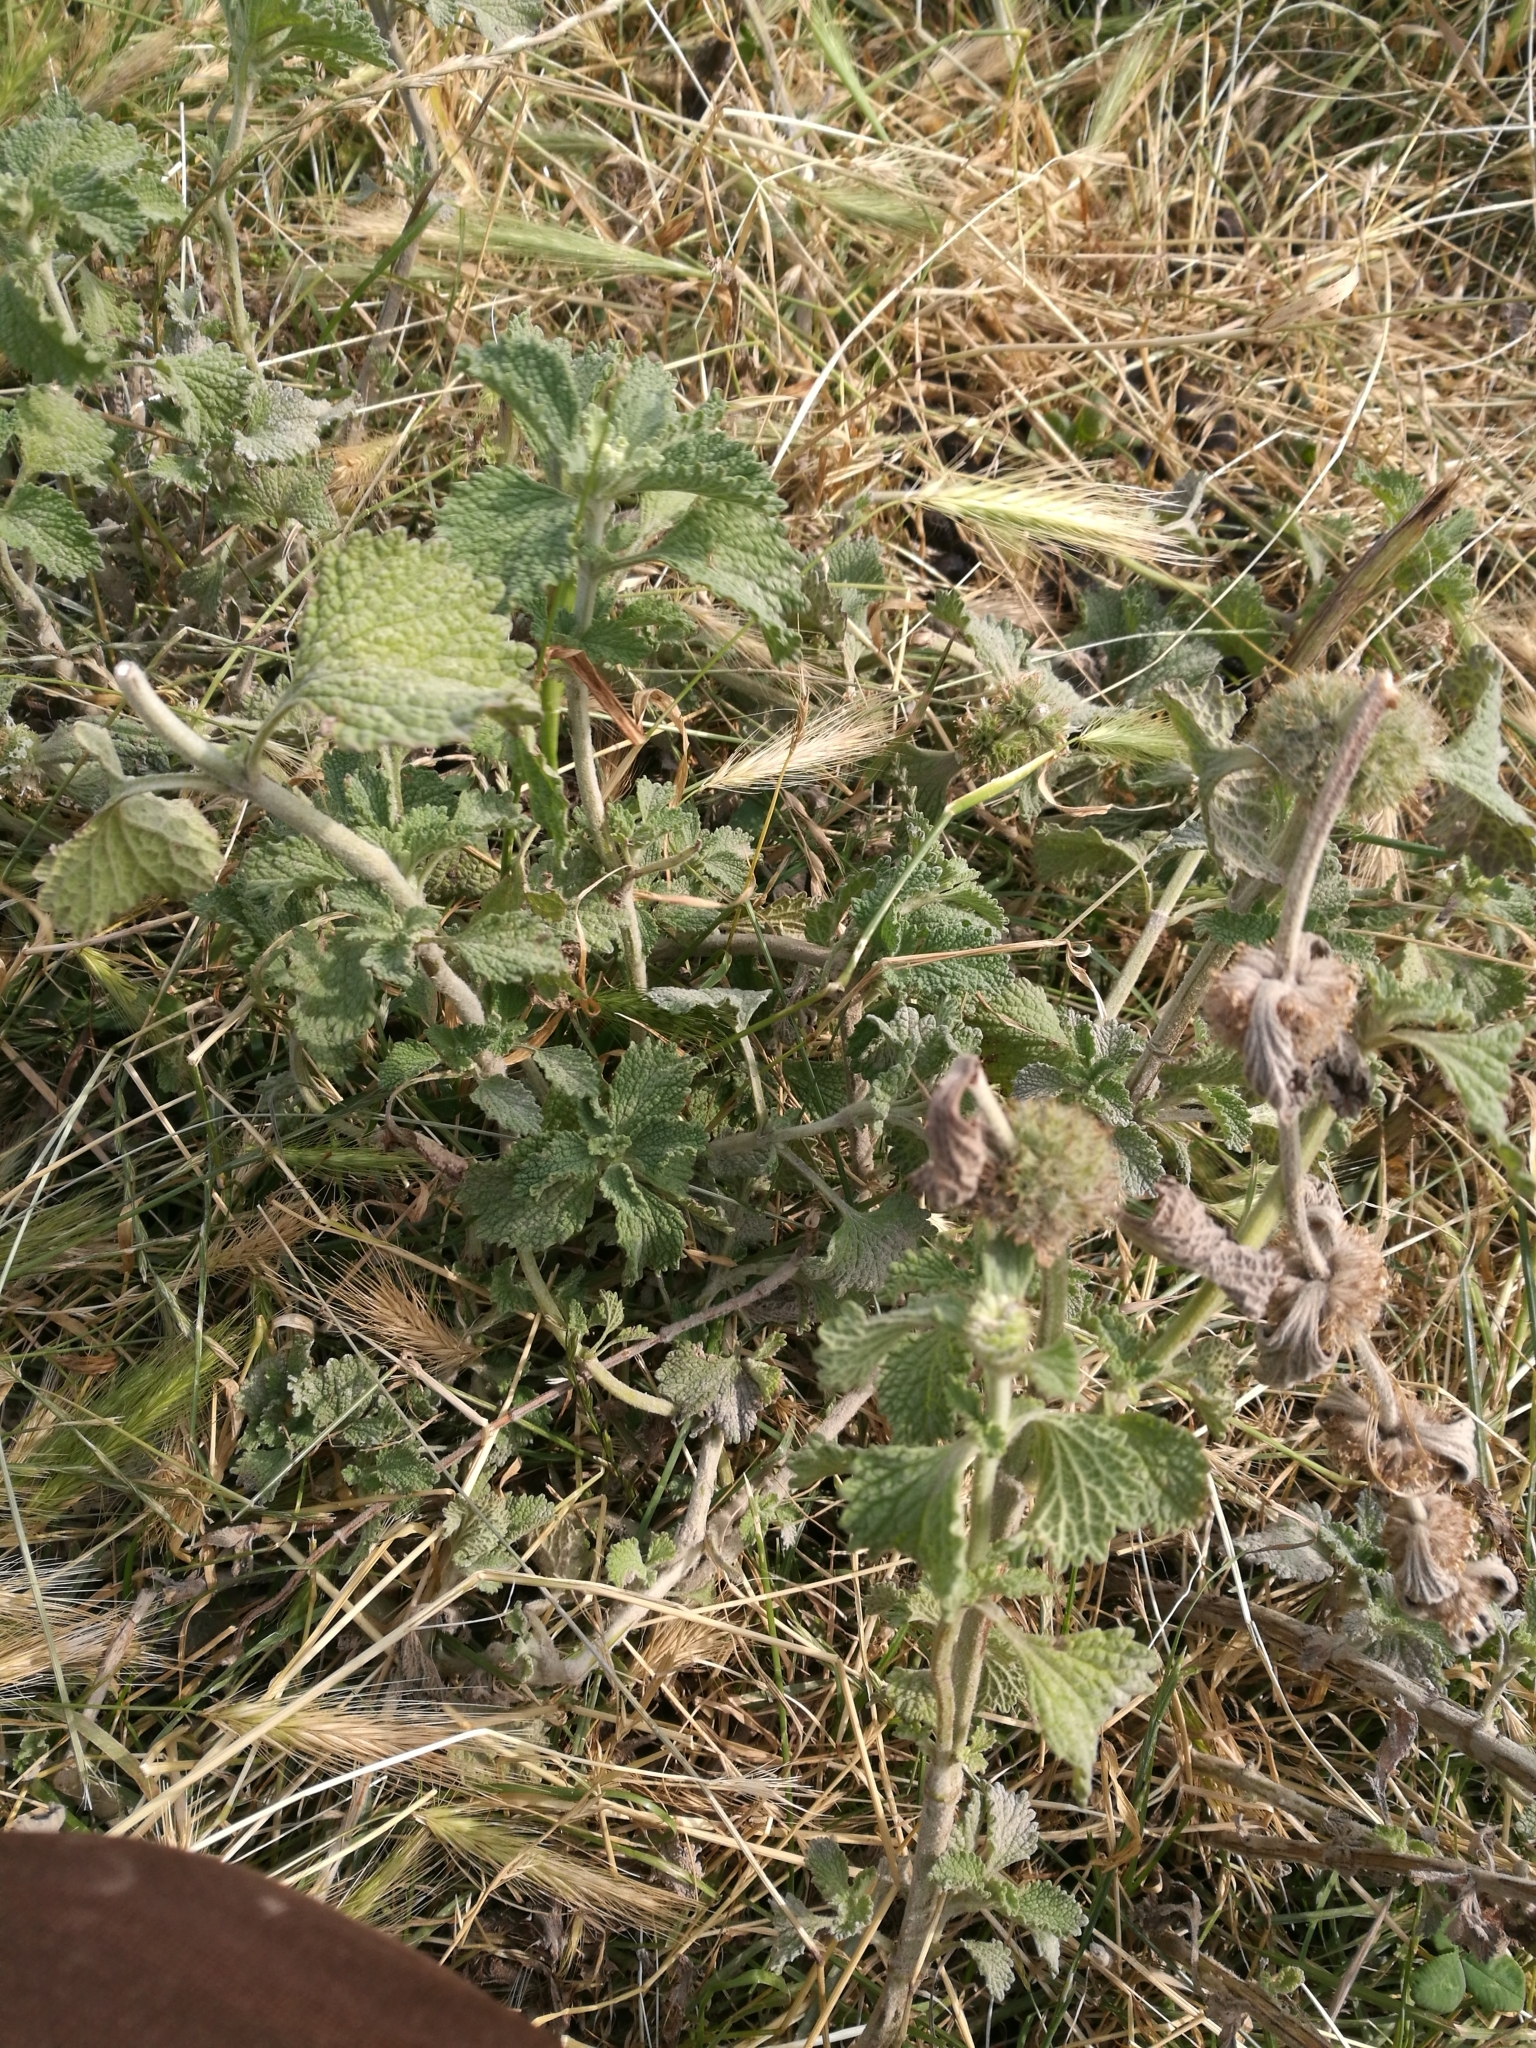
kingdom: Plantae
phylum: Tracheophyta
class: Magnoliopsida
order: Lamiales
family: Lamiaceae
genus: Marrubium
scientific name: Marrubium vulgare
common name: Horehound
